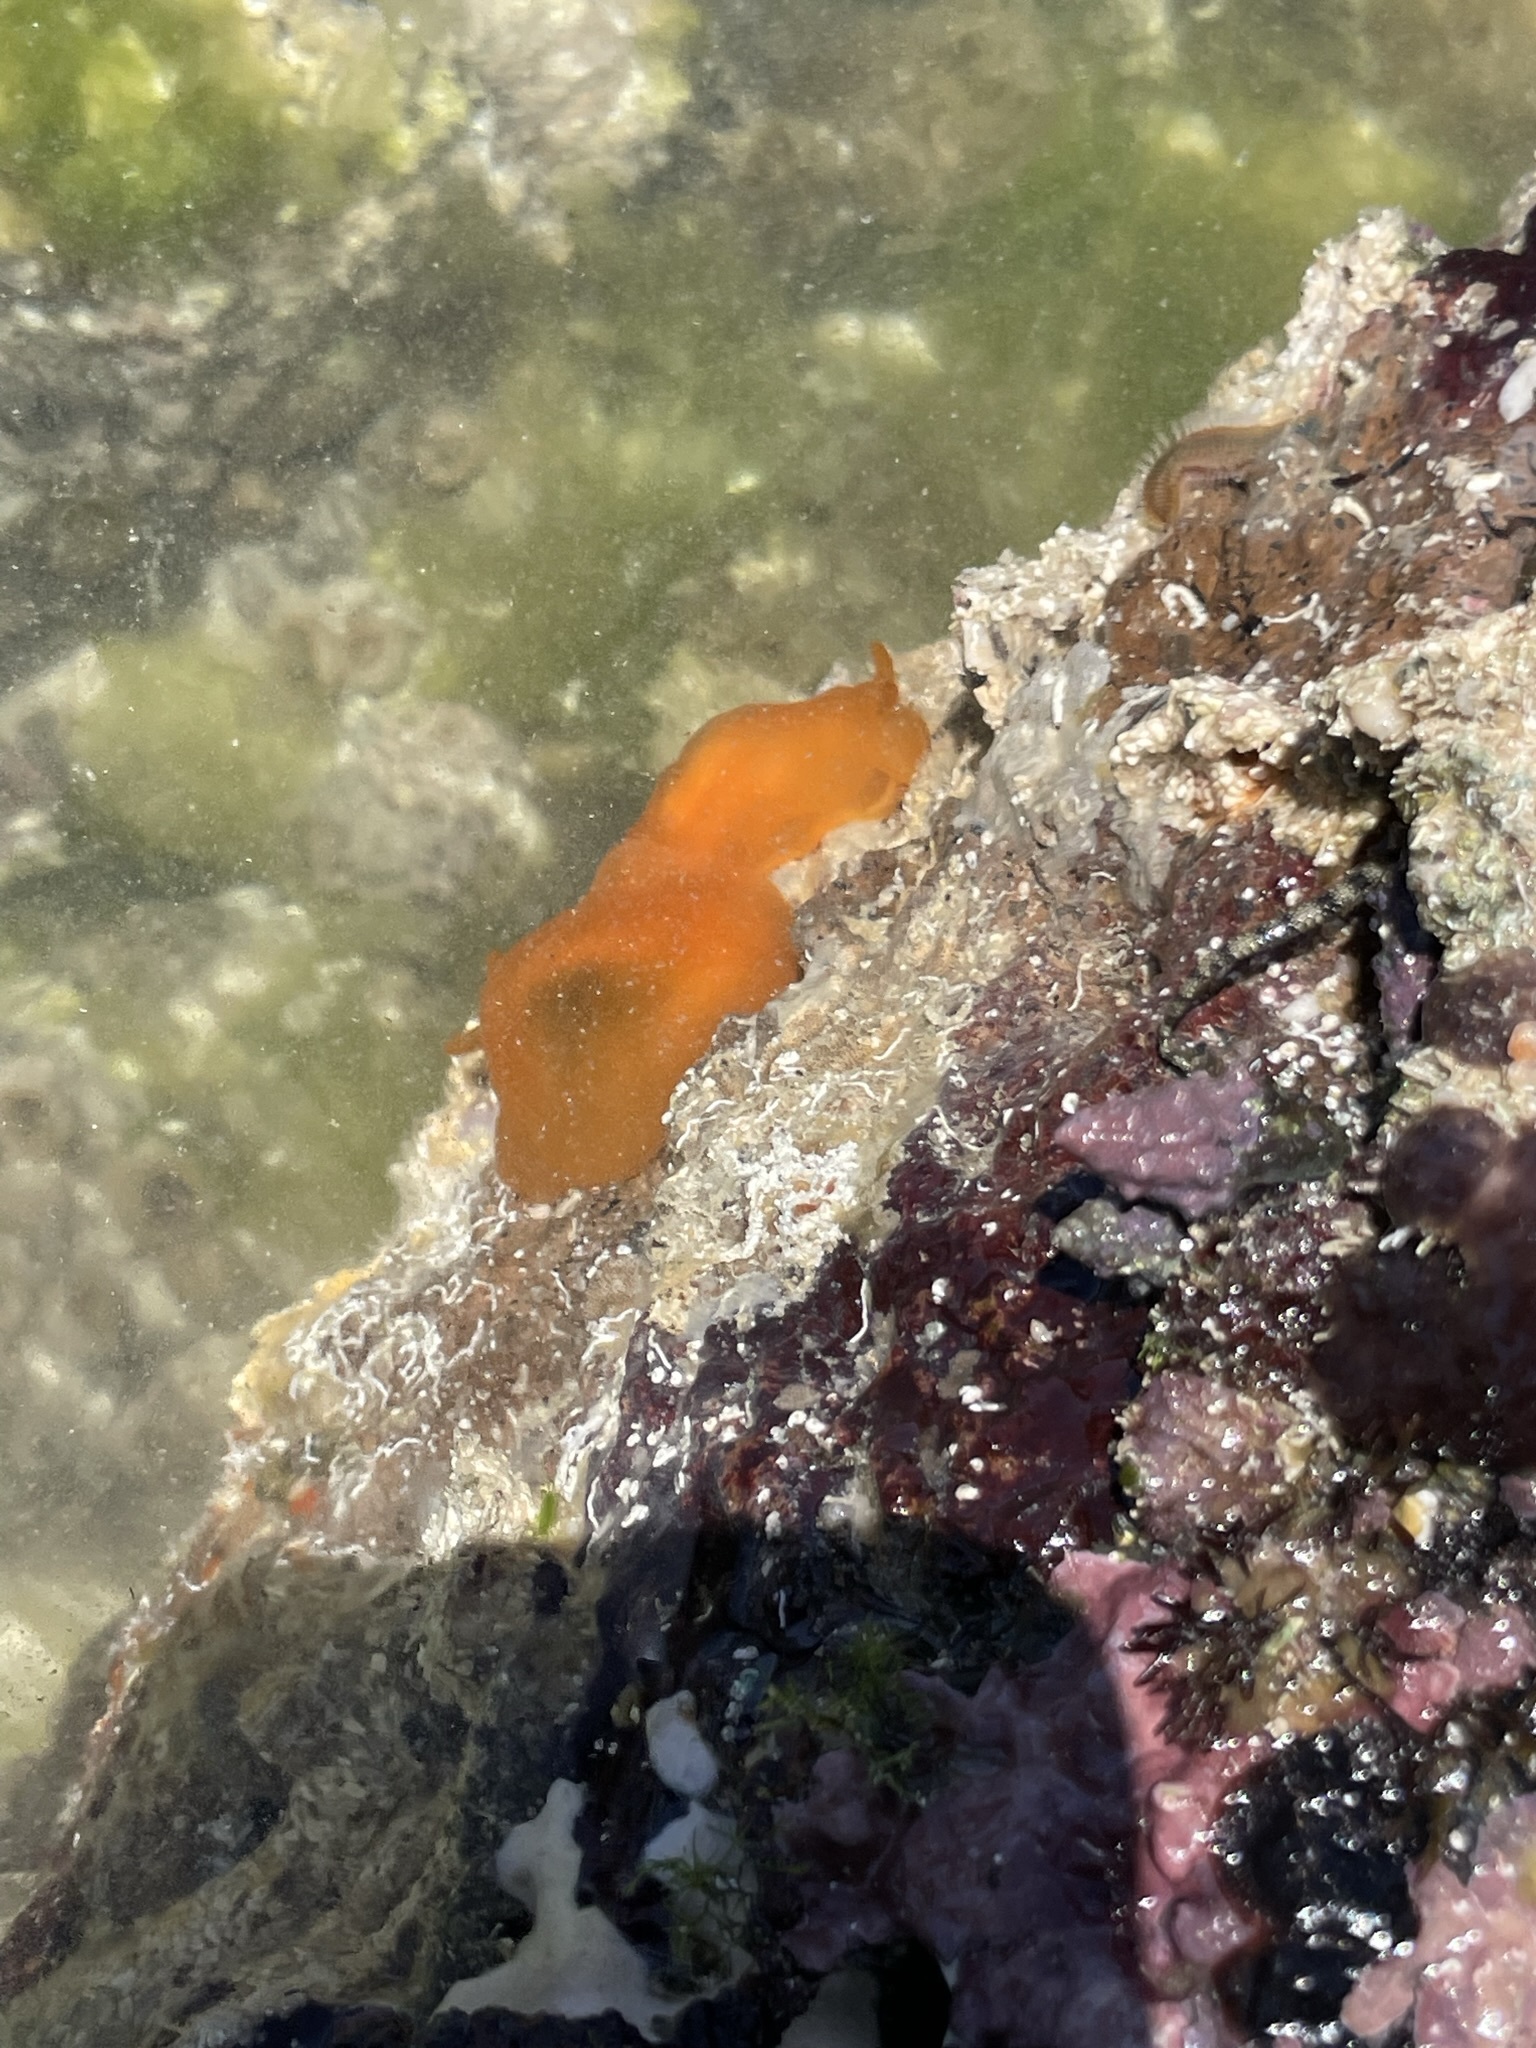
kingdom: Animalia
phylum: Mollusca
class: Gastropoda
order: Pleurobranchida
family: Pleurobranchidae
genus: Berthellina
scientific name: Berthellina ilisima
